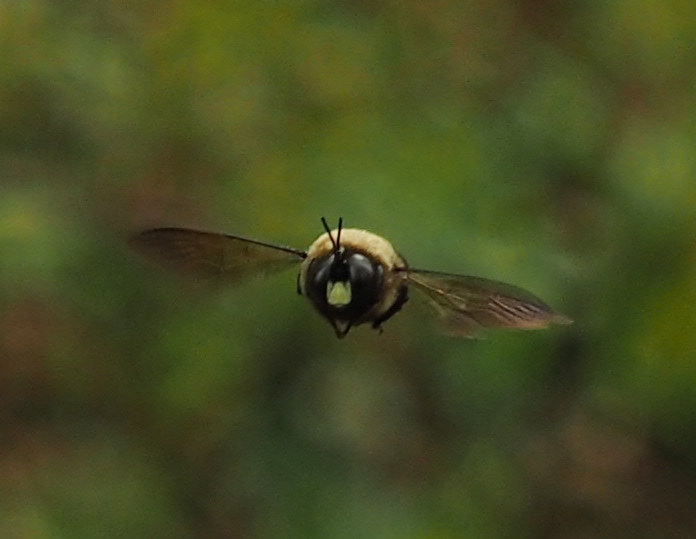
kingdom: Animalia
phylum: Arthropoda
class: Insecta
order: Hymenoptera
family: Apidae
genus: Xylocopa
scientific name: Xylocopa virginica
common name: Carpenter bee
